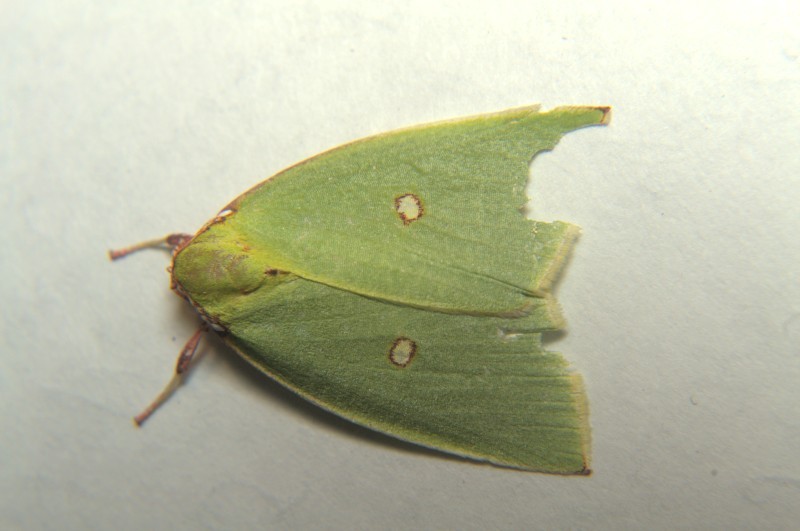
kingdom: Animalia
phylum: Arthropoda
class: Insecta
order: Lepidoptera
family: Nolidae
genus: Tyana
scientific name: Tyana marina
